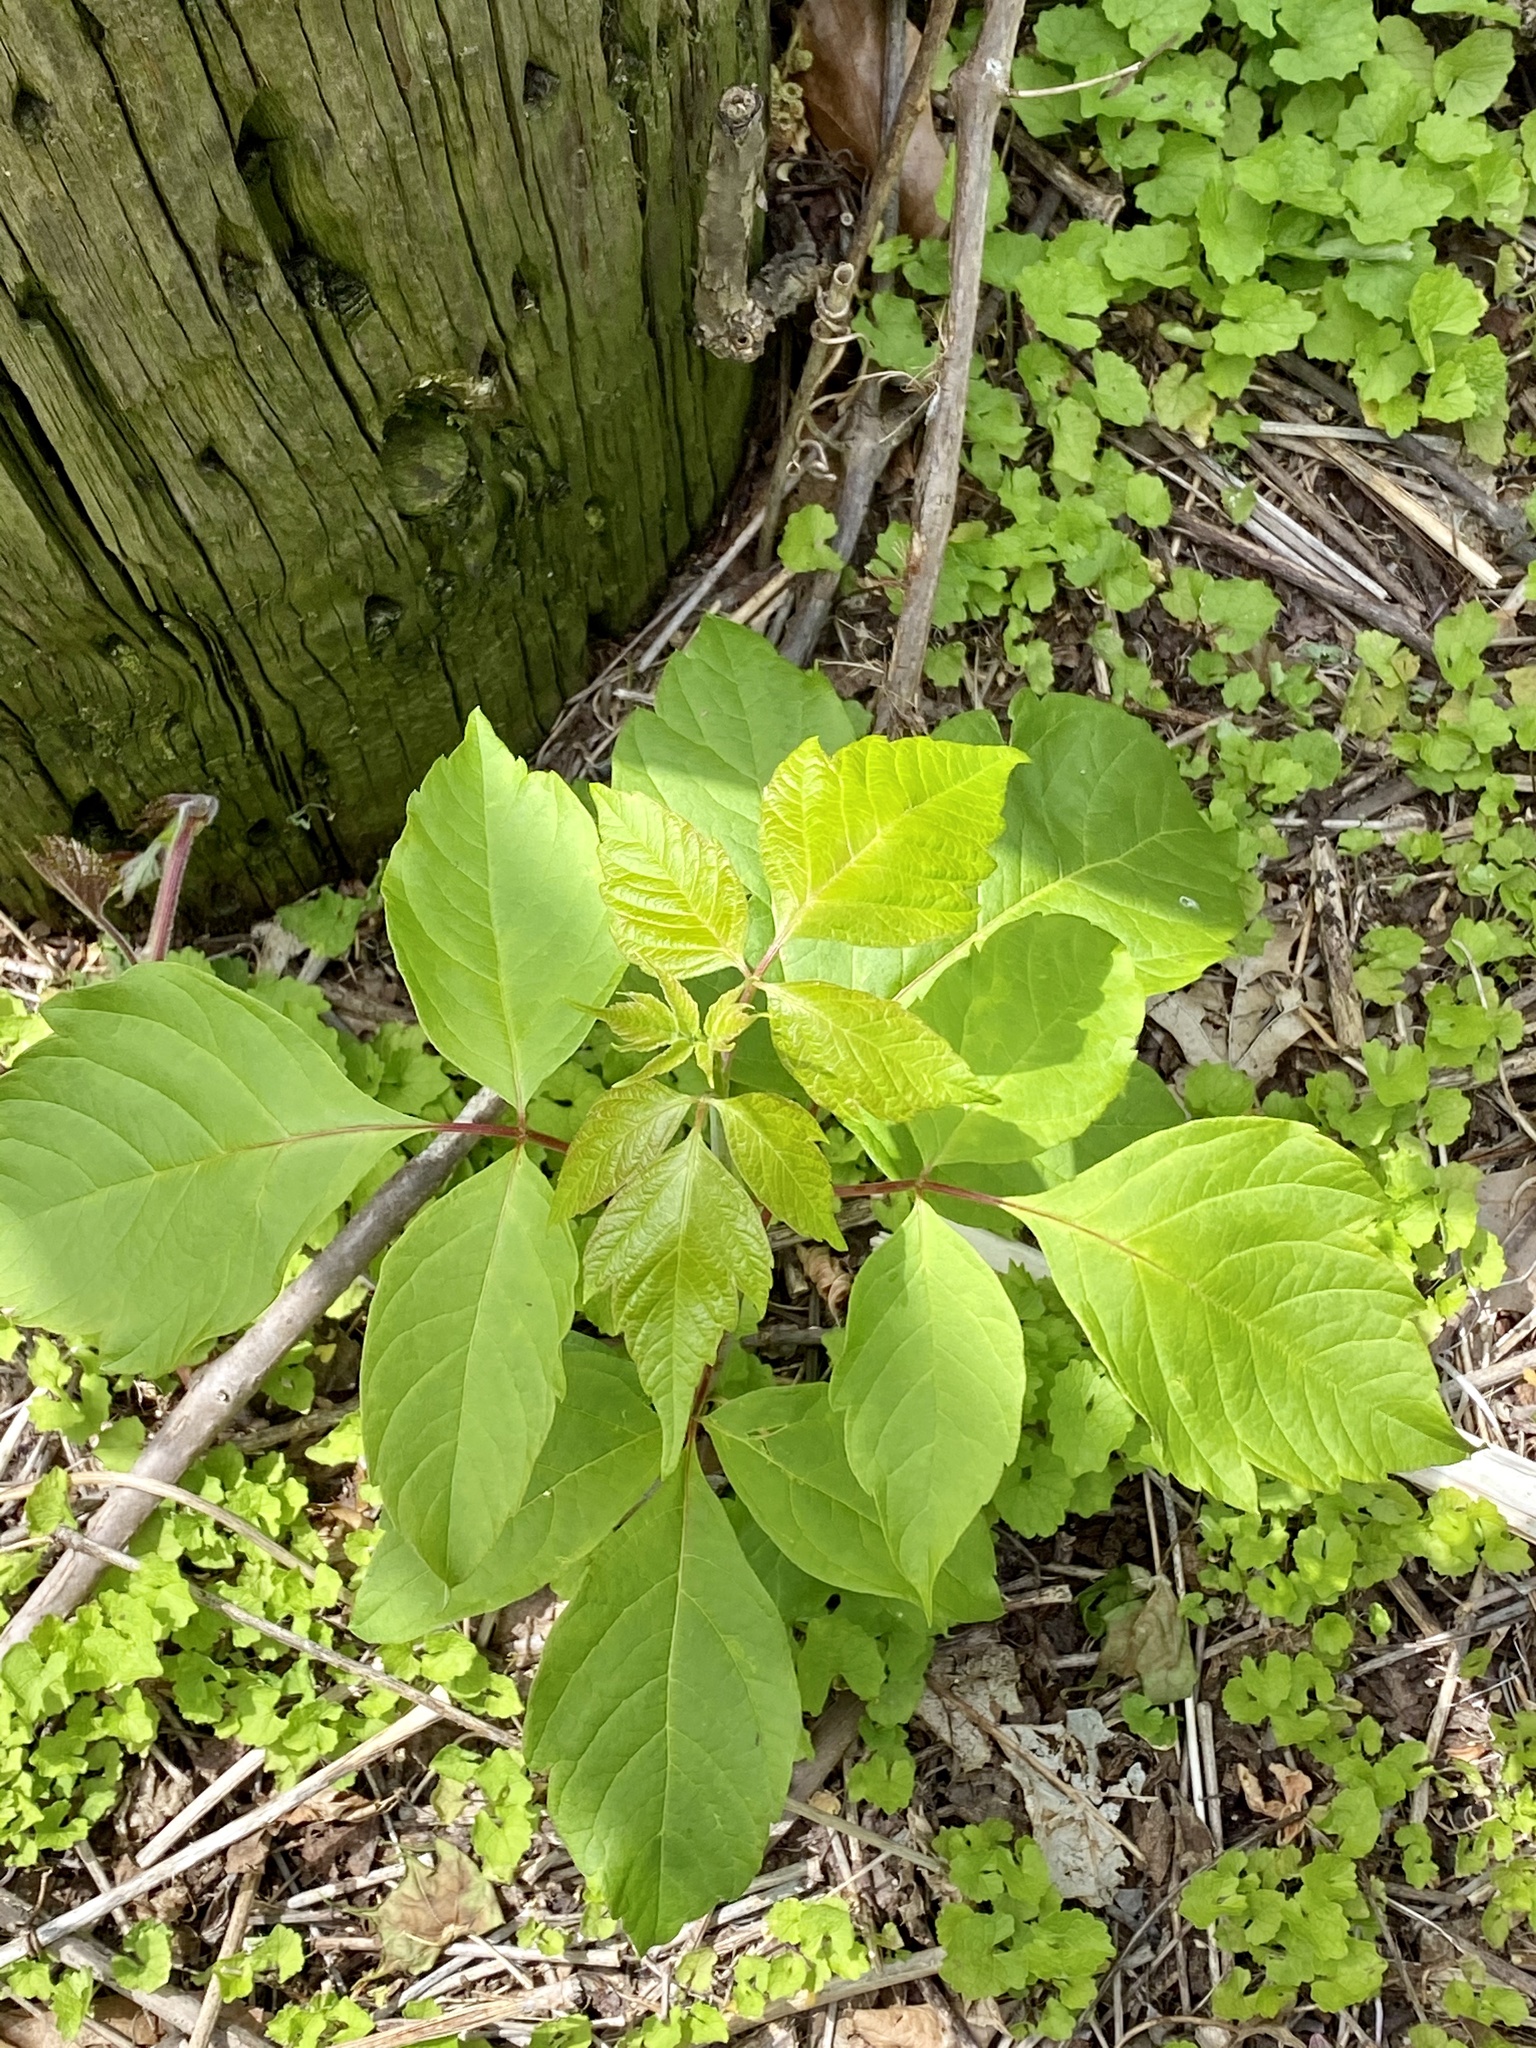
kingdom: Plantae
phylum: Tracheophyta
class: Magnoliopsida
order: Sapindales
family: Sapindaceae
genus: Acer
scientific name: Acer negundo
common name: Ashleaf maple
